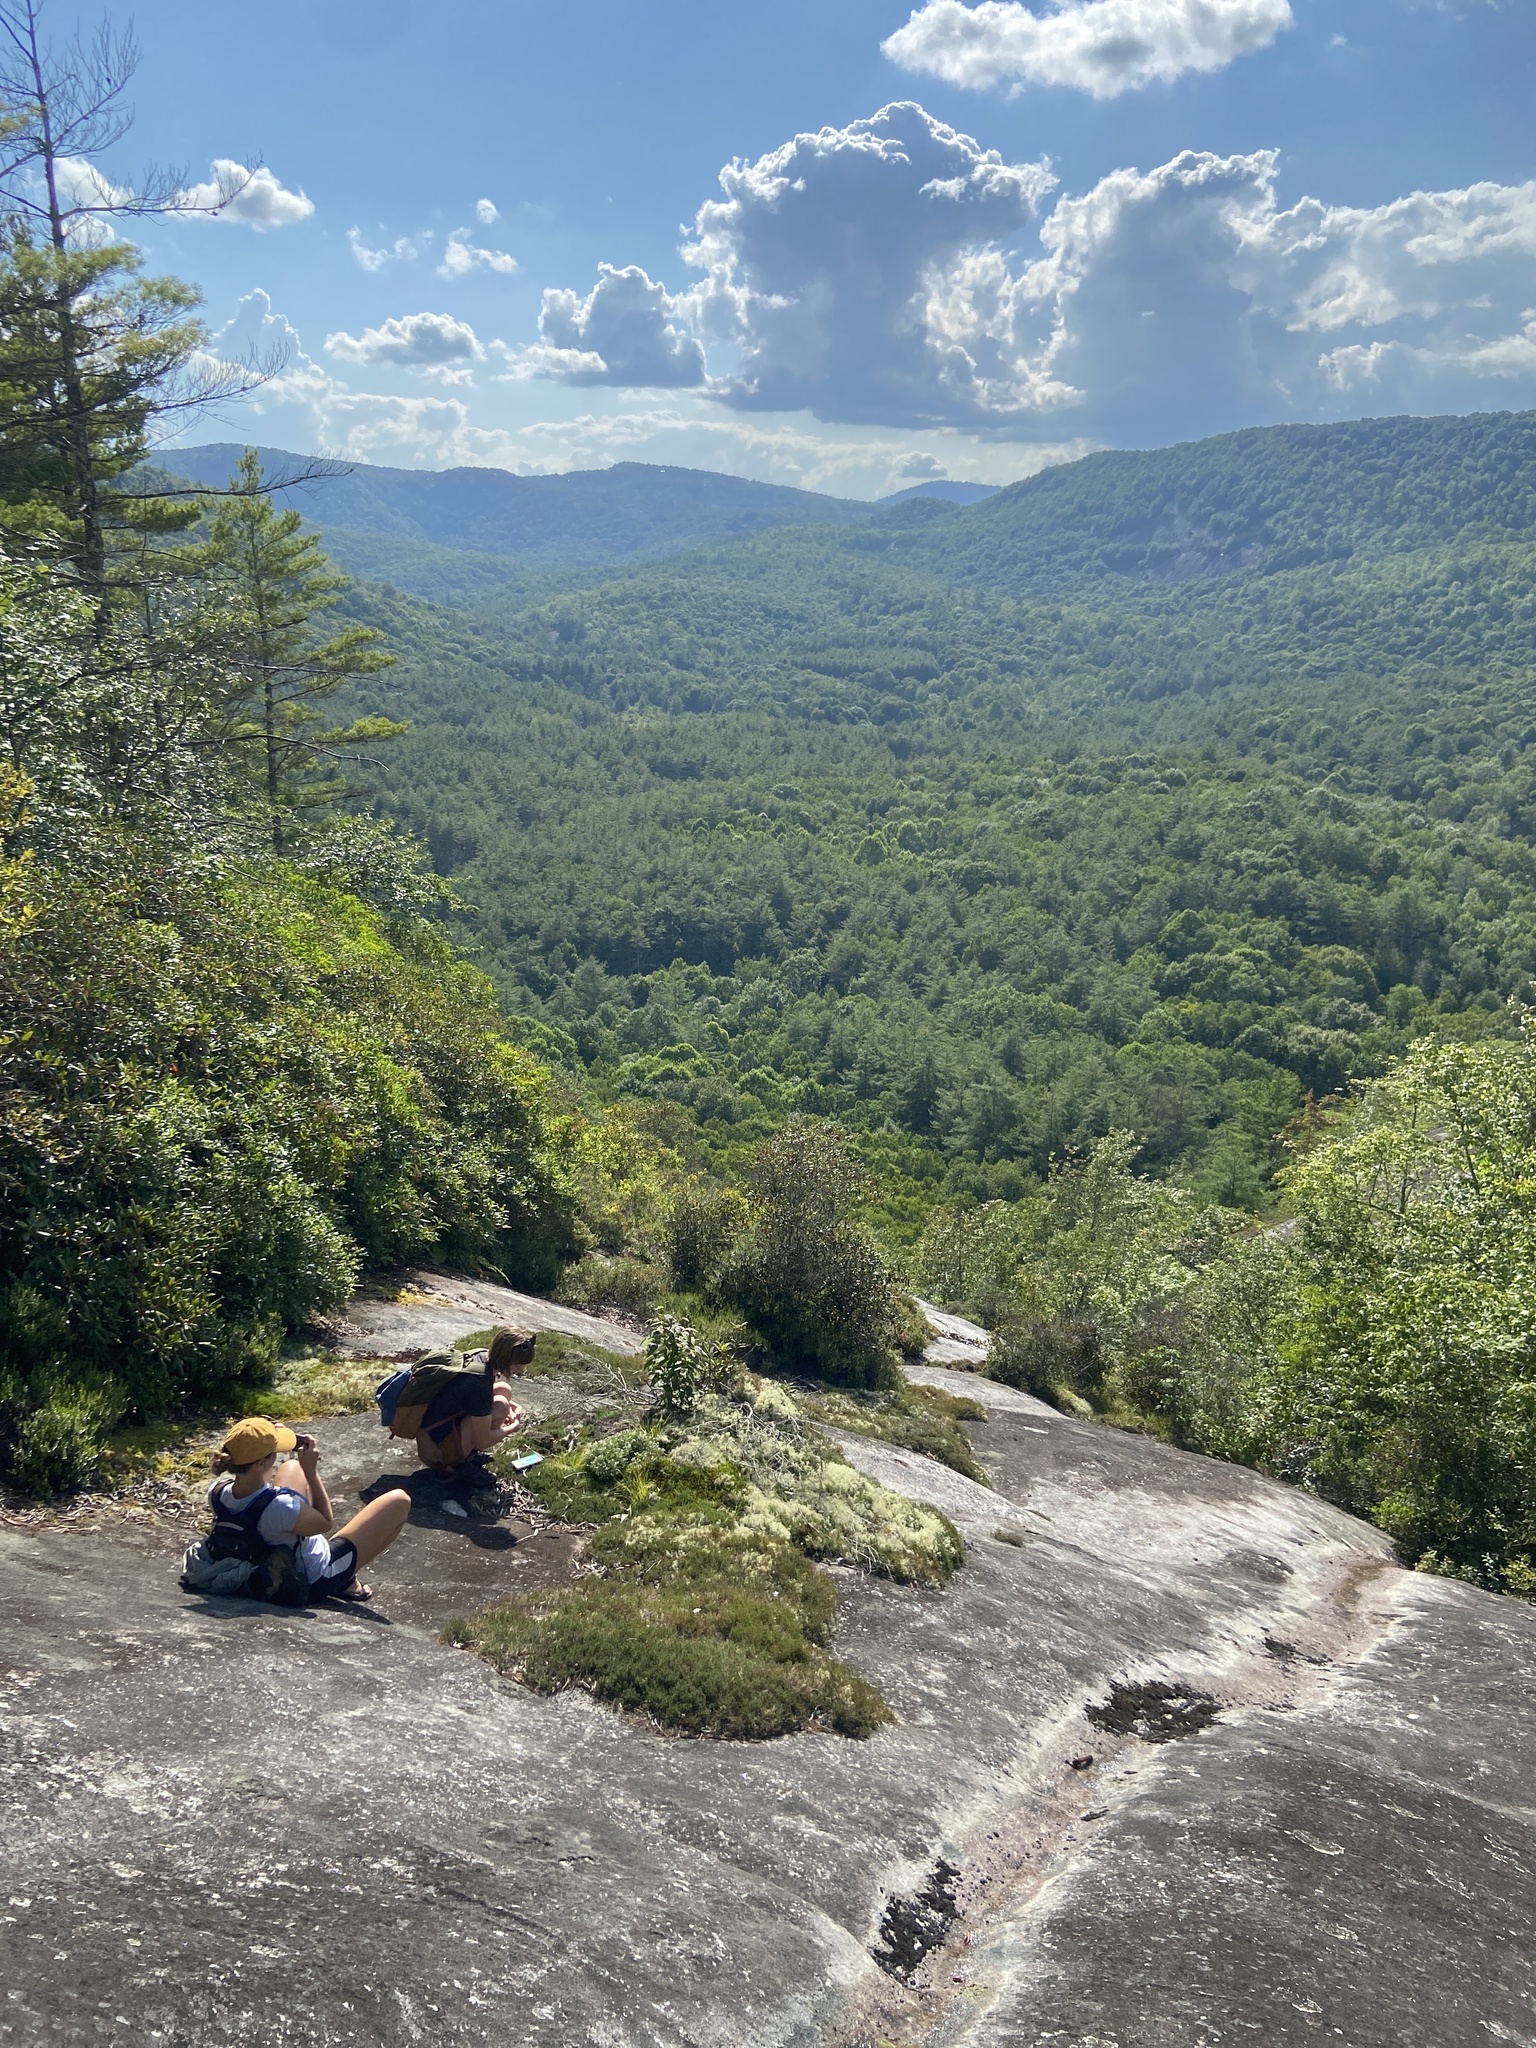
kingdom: Plantae
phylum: Tracheophyta
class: Pinopsida
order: Pinales
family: Pinaceae
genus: Pinus
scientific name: Pinus pungens
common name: Hickory pine
